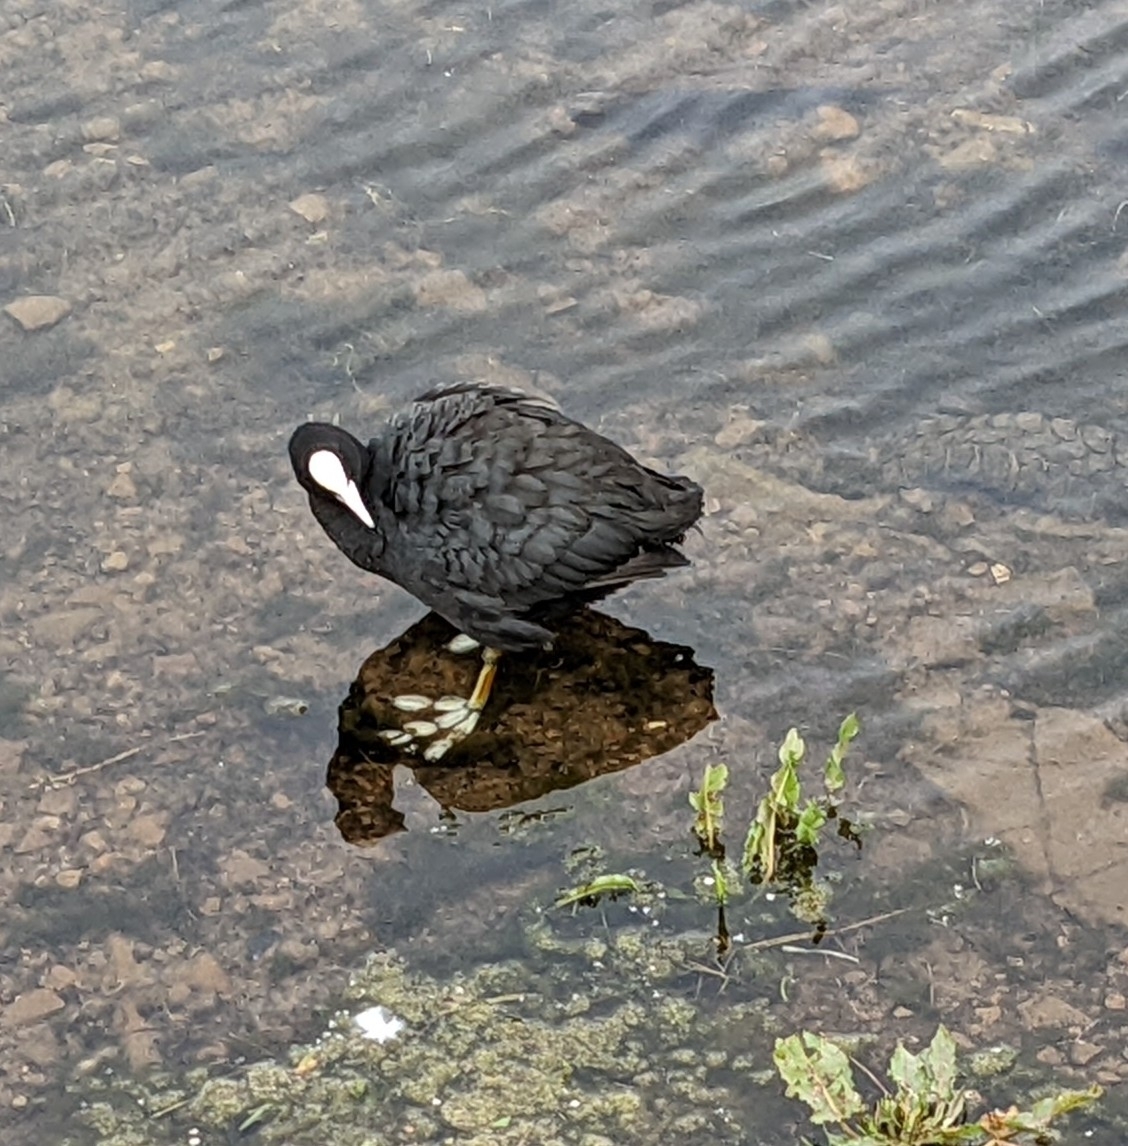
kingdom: Animalia
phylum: Chordata
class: Aves
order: Gruiformes
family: Rallidae
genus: Fulica
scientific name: Fulica atra
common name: Eurasian coot
